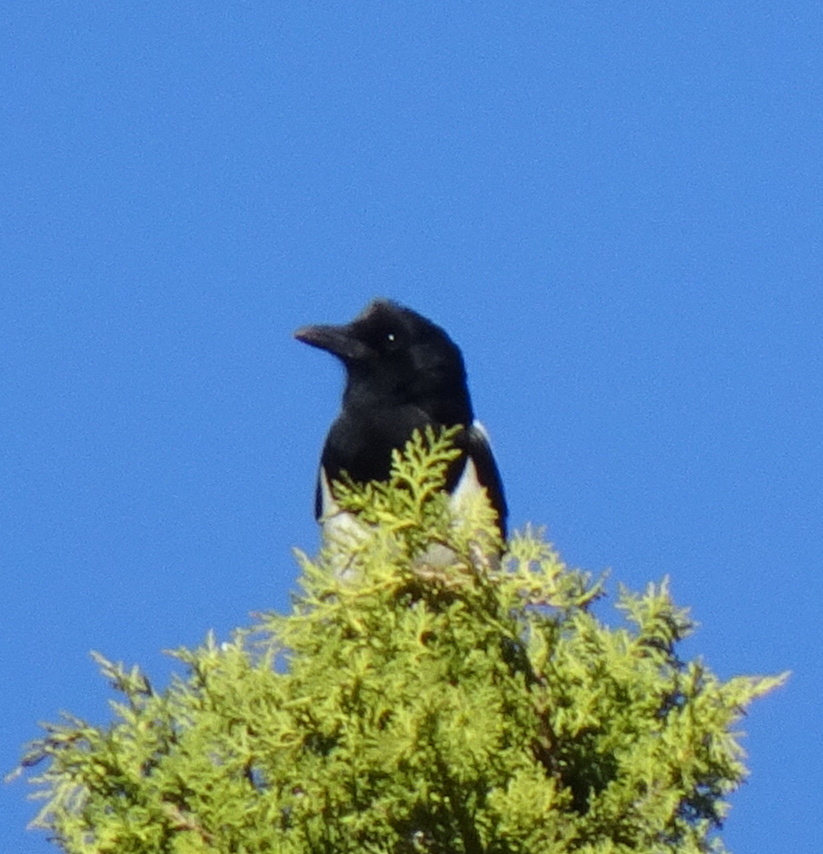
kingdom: Animalia
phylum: Chordata
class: Aves
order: Passeriformes
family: Corvidae
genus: Pica
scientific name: Pica pica
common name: Eurasian magpie
